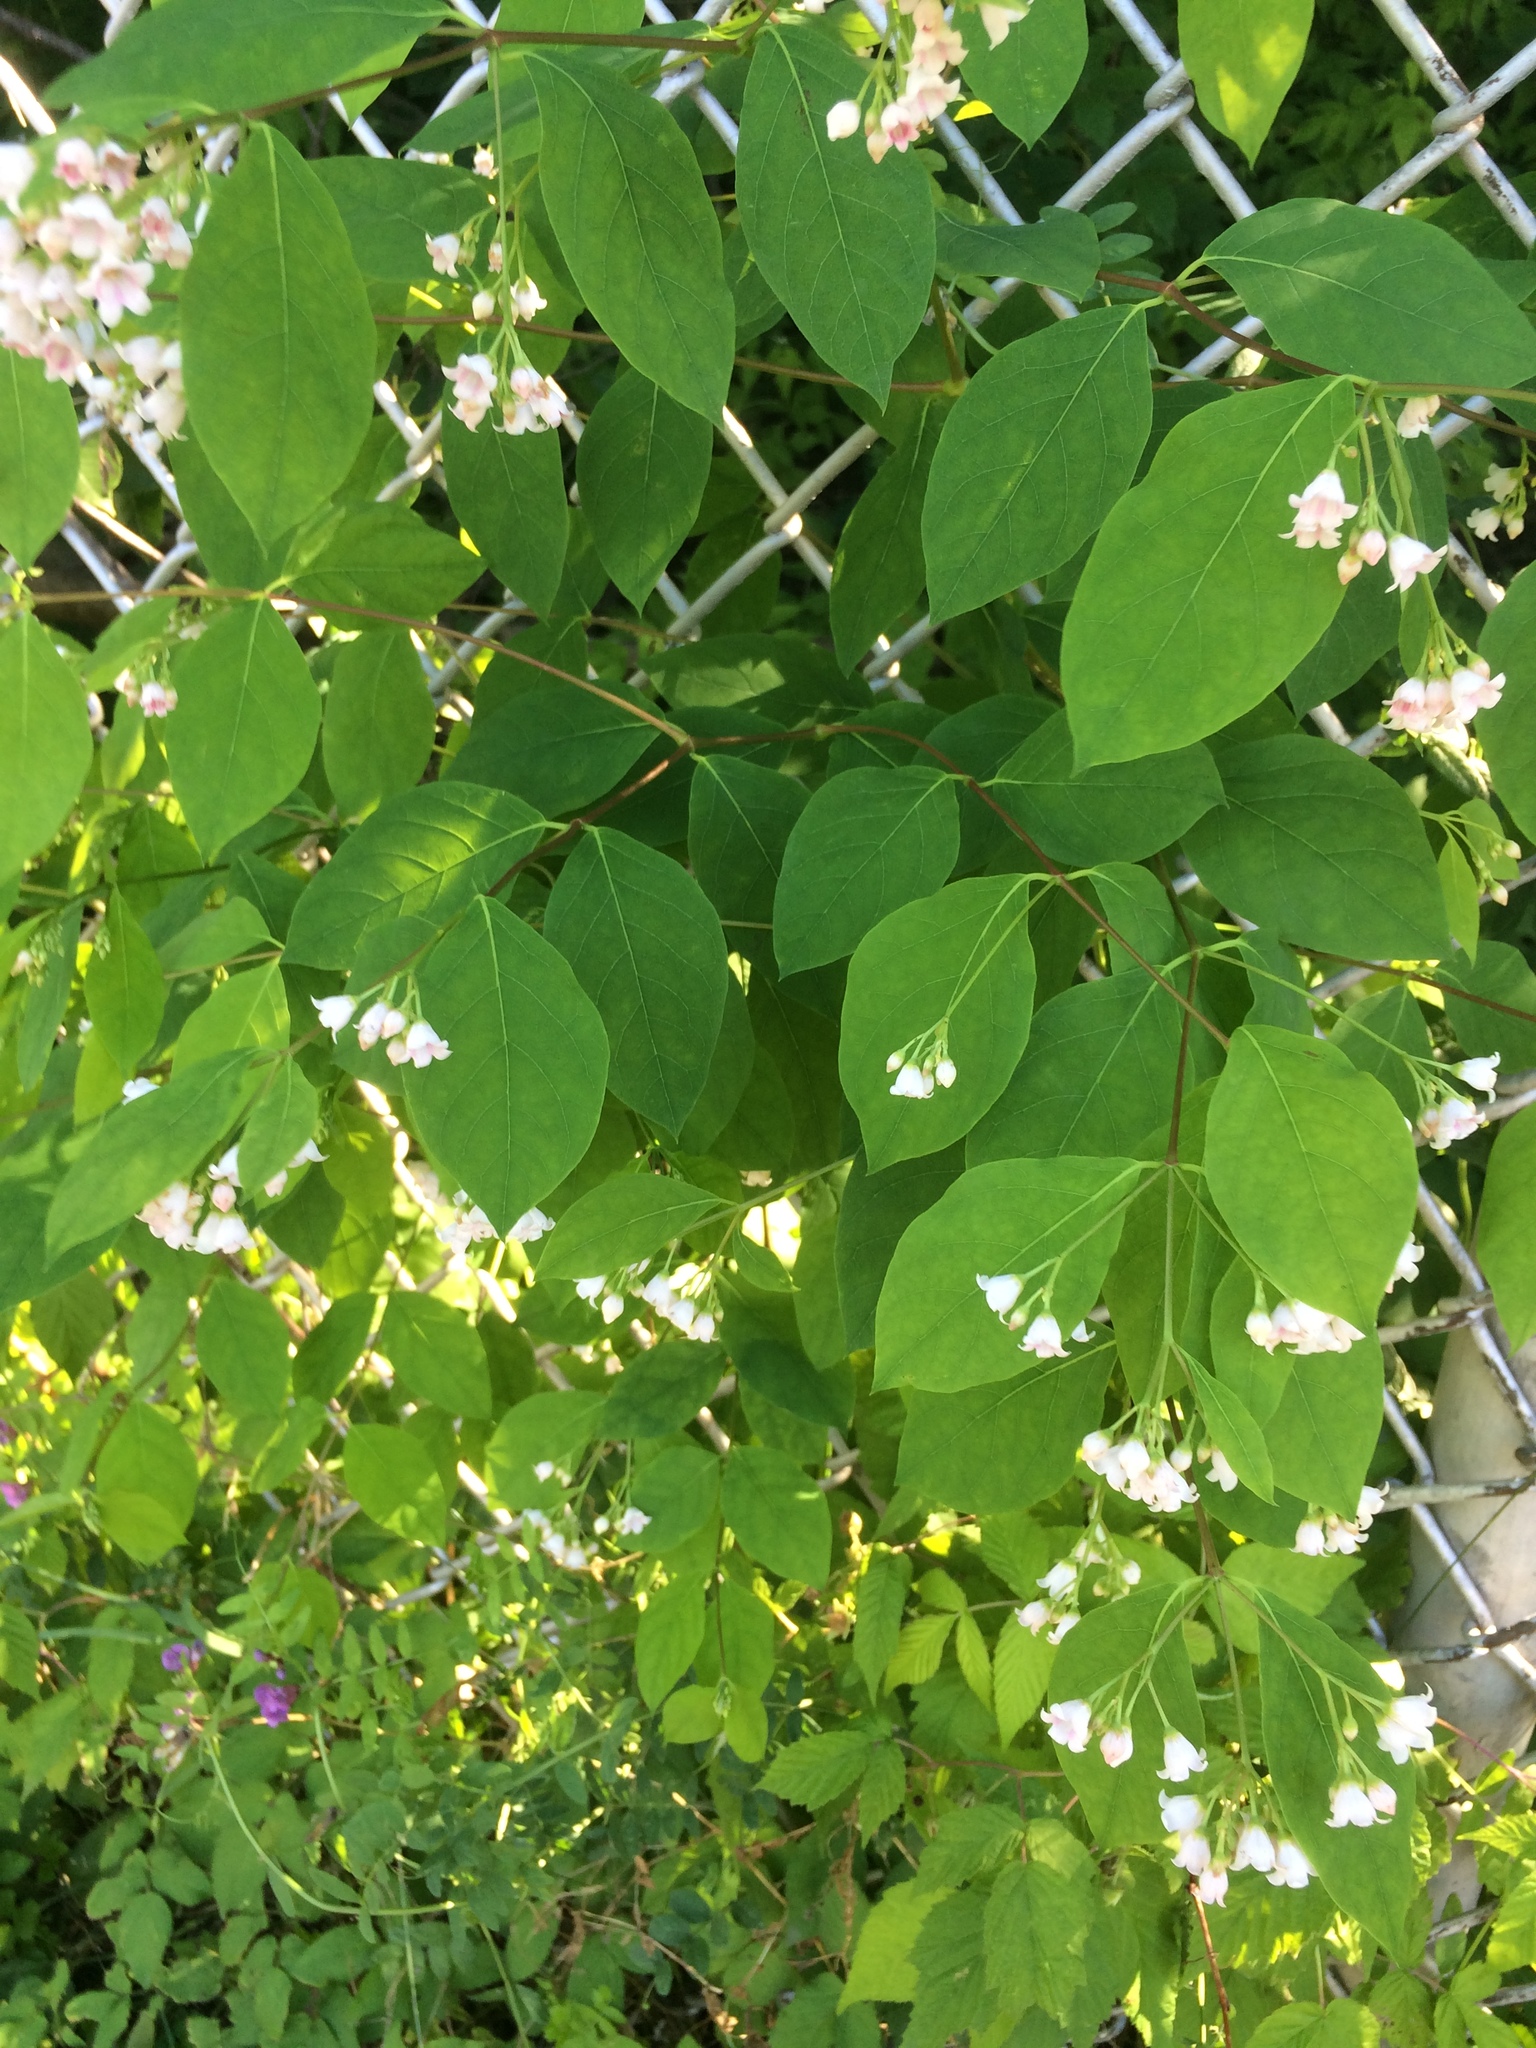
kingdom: Plantae
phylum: Tracheophyta
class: Magnoliopsida
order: Gentianales
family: Apocynaceae
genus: Apocynum
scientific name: Apocynum androsaemifolium
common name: Spreading dogbane
